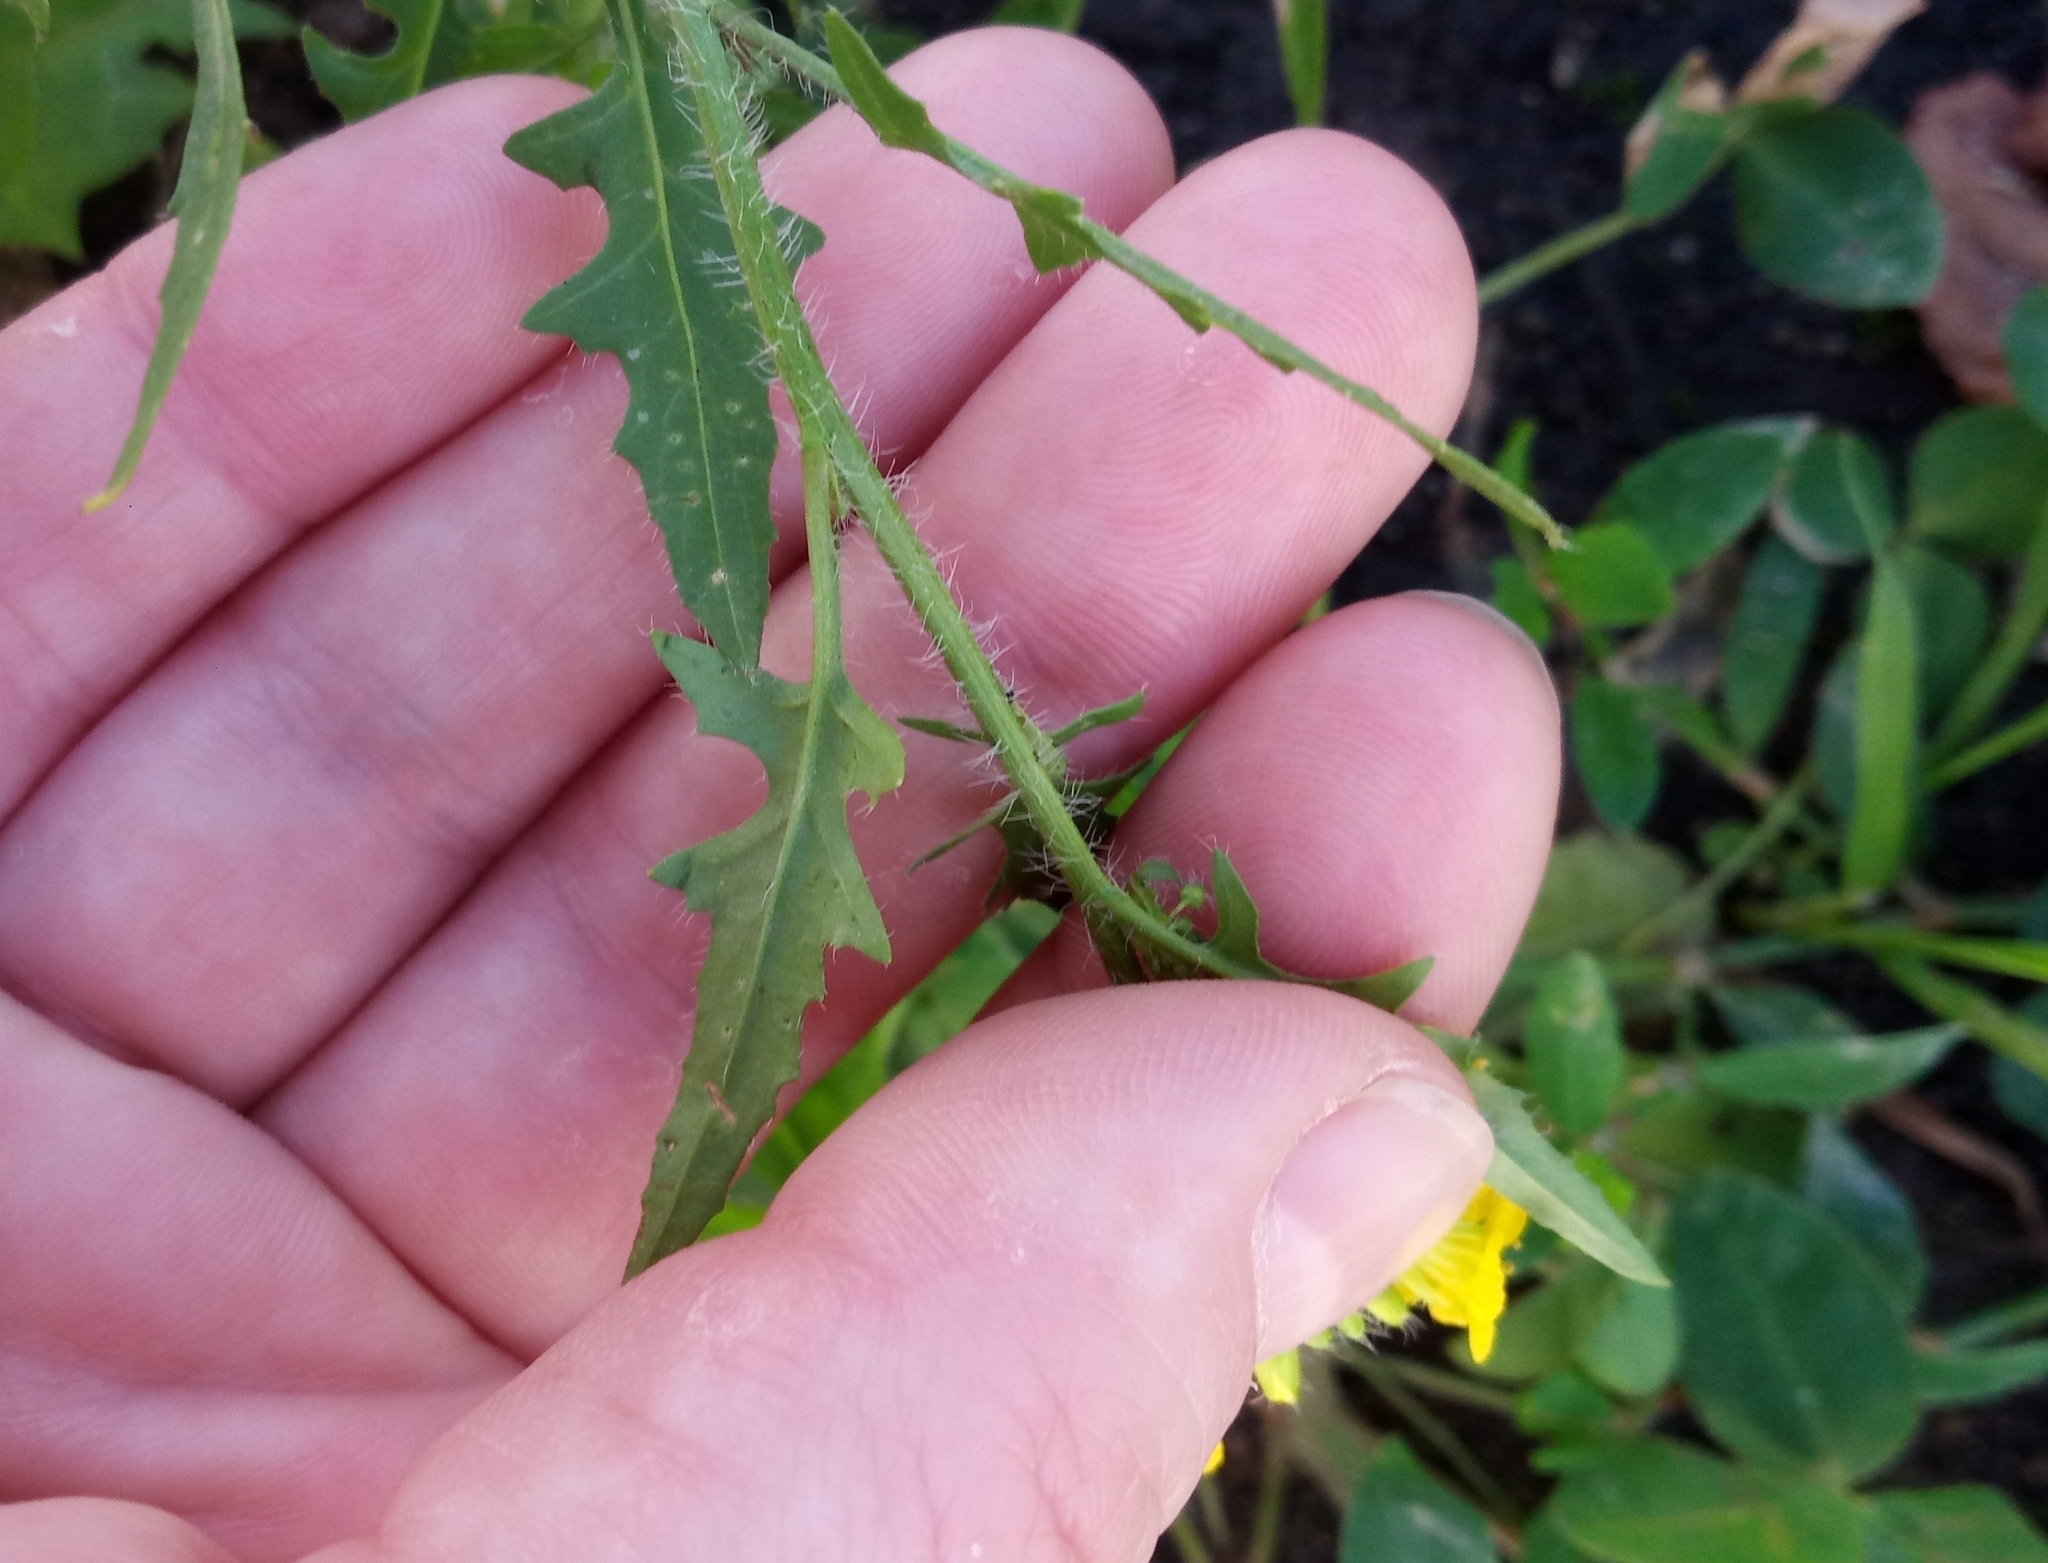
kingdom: Plantae
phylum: Tracheophyta
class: Magnoliopsida
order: Brassicales
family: Brassicaceae
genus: Sisymbrium
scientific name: Sisymbrium loeselii
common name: False london-rocket
